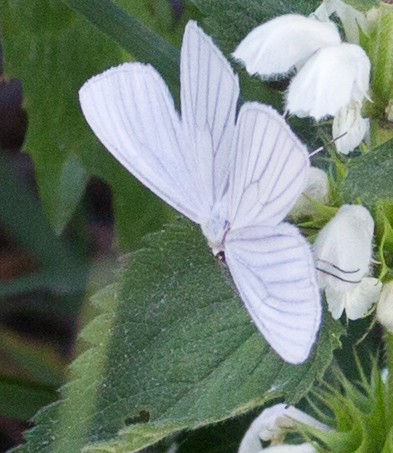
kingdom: Animalia
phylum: Arthropoda
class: Insecta
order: Lepidoptera
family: Geometridae
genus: Siona
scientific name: Siona lineata
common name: Black-veined moth
